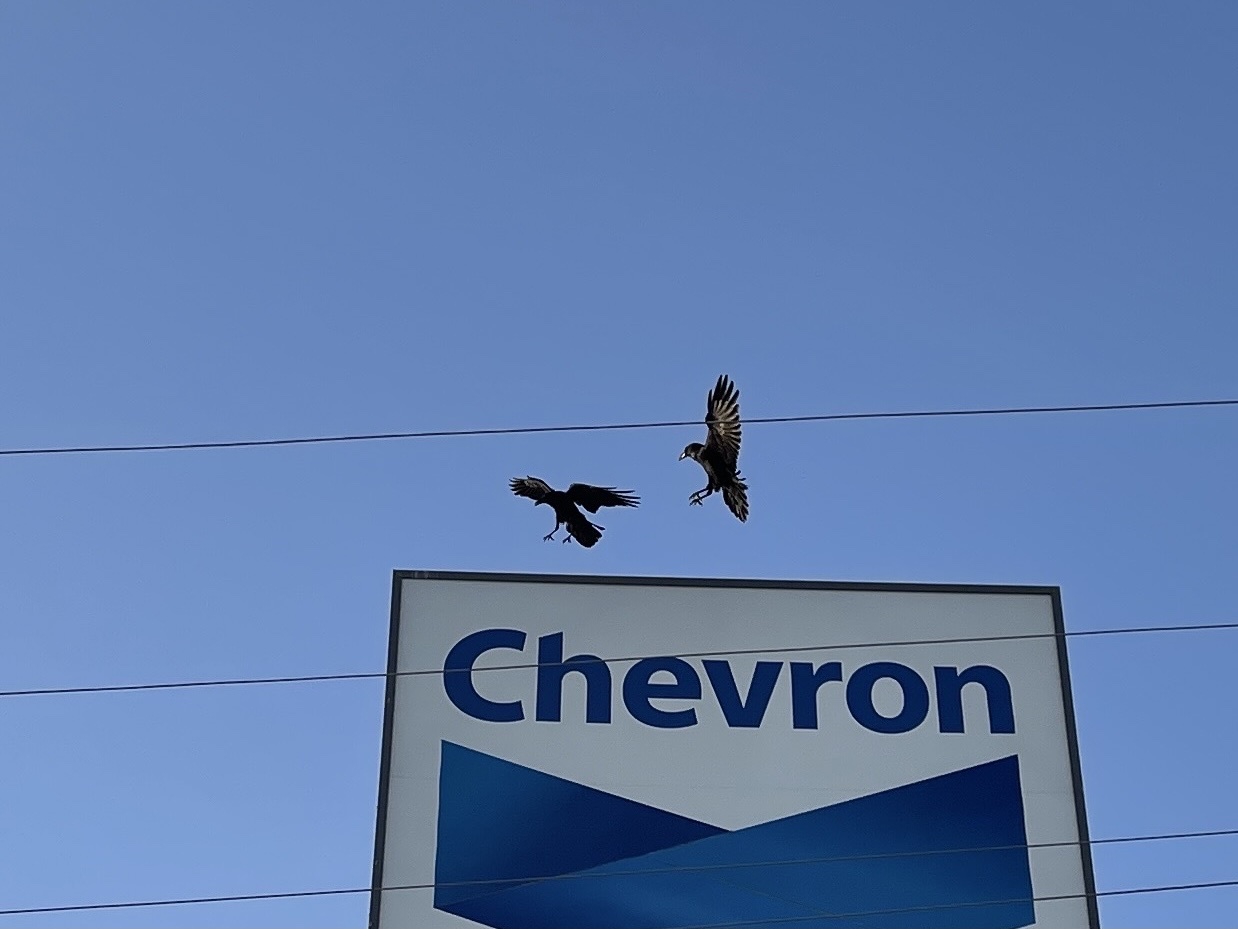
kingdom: Animalia
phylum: Chordata
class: Aves
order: Passeriformes
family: Corvidae
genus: Corvus
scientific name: Corvus corax
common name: Common raven
